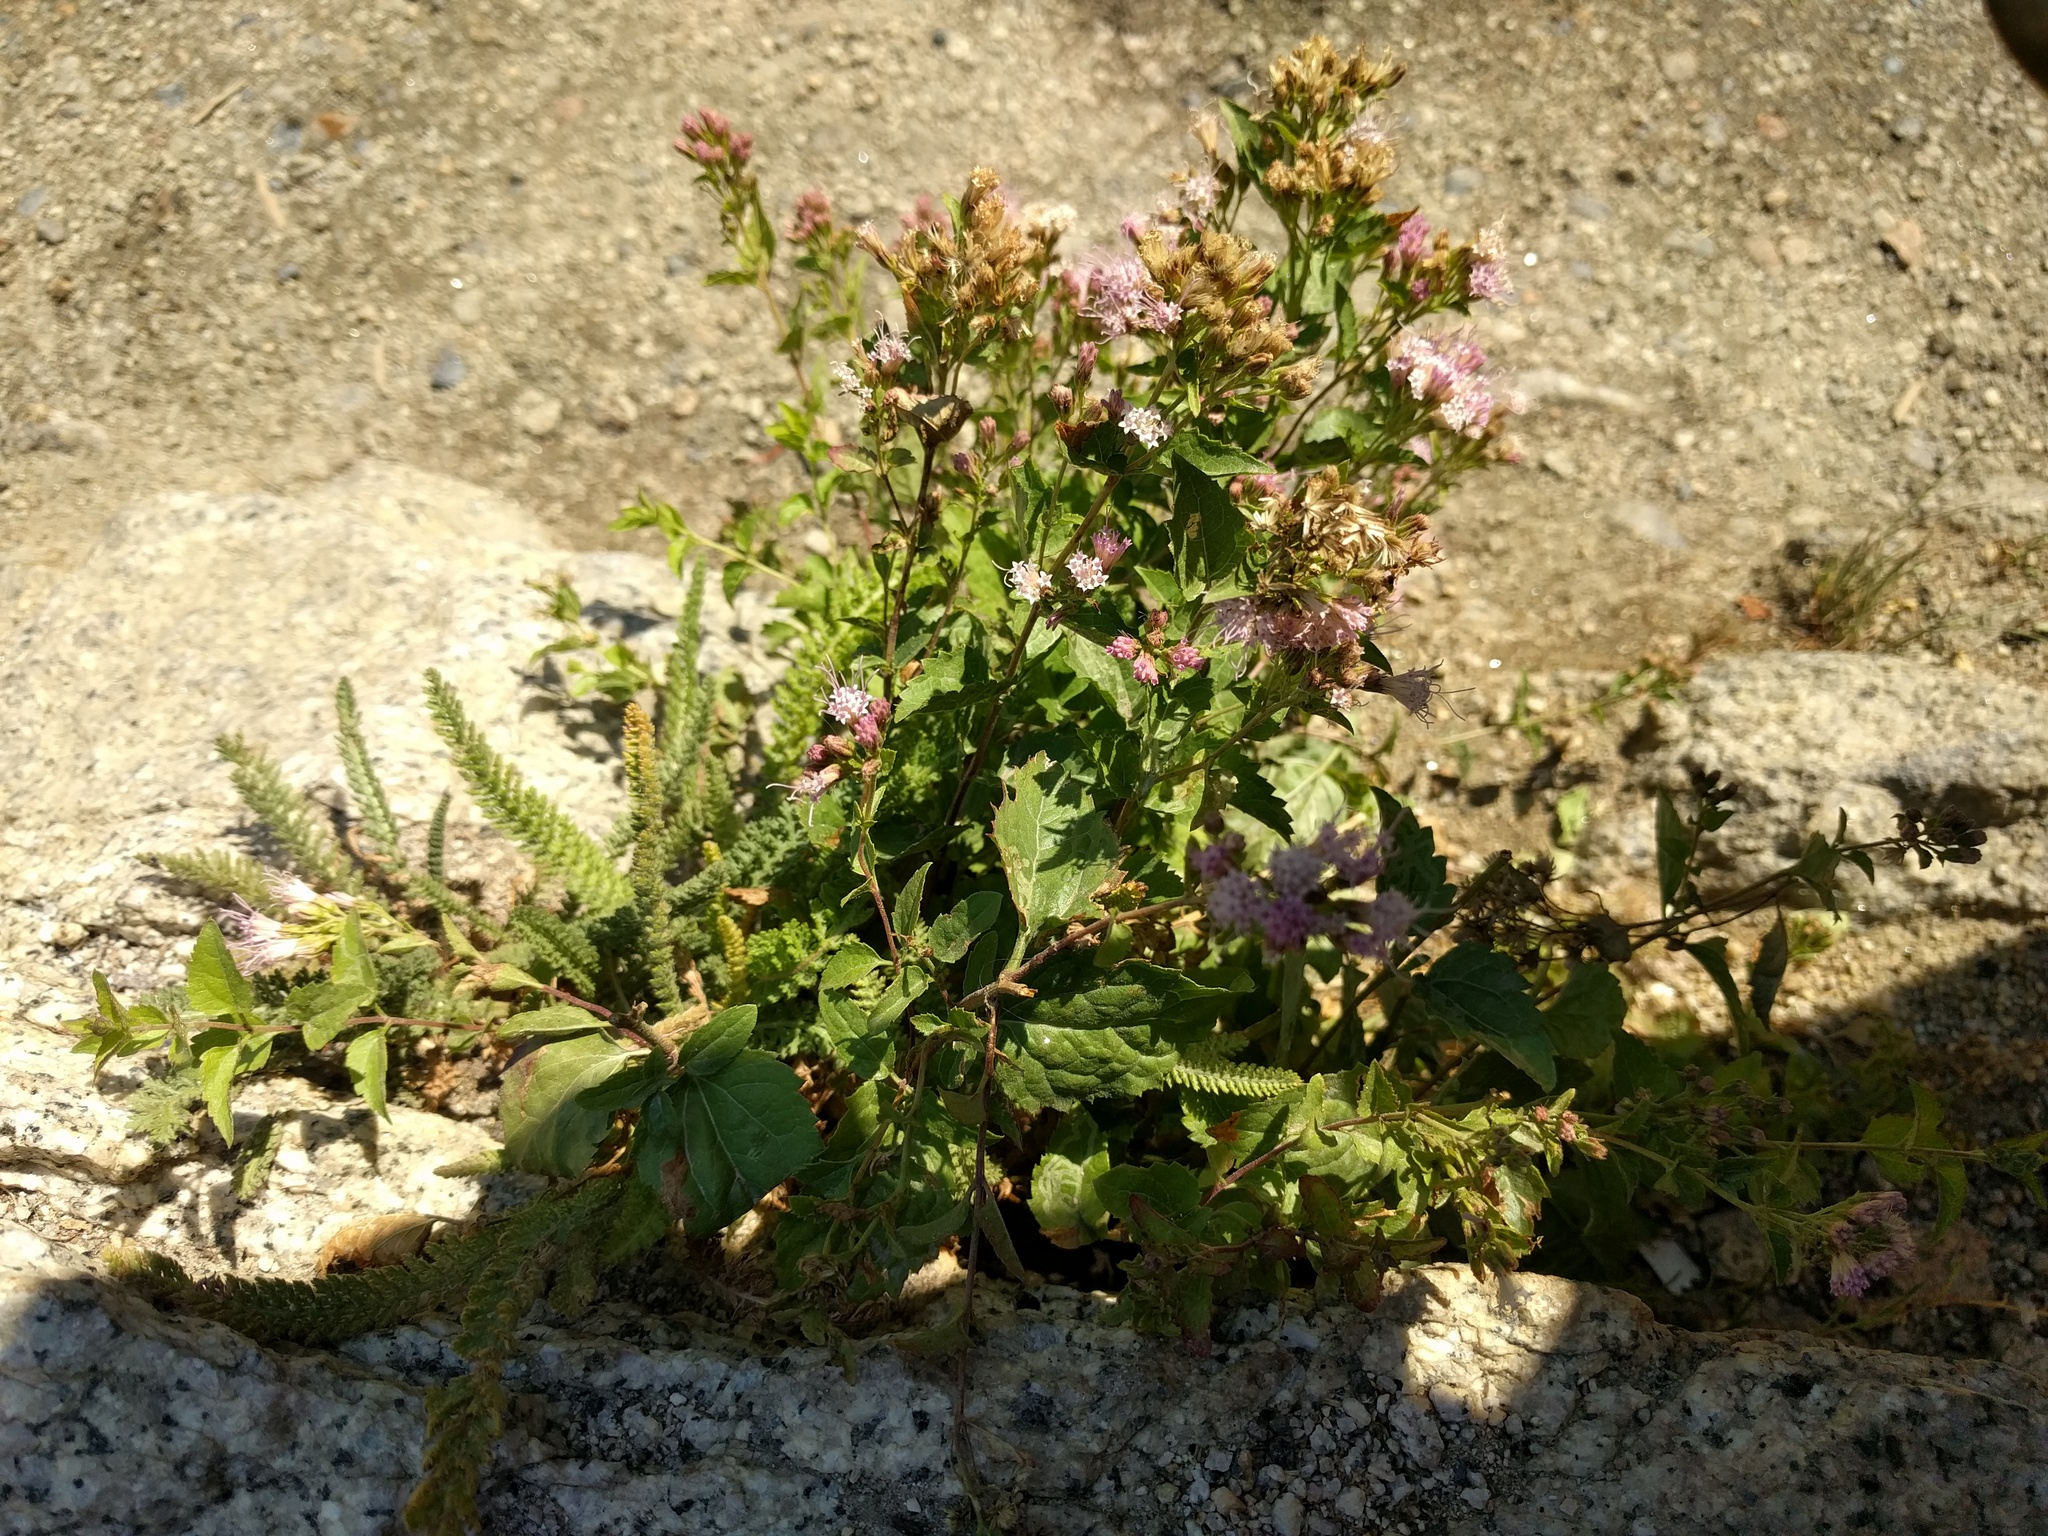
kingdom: Plantae
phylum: Tracheophyta
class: Magnoliopsida
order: Asterales
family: Asteraceae
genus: Ageratina
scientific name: Ageratina occidentalis
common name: Western snakeroot
